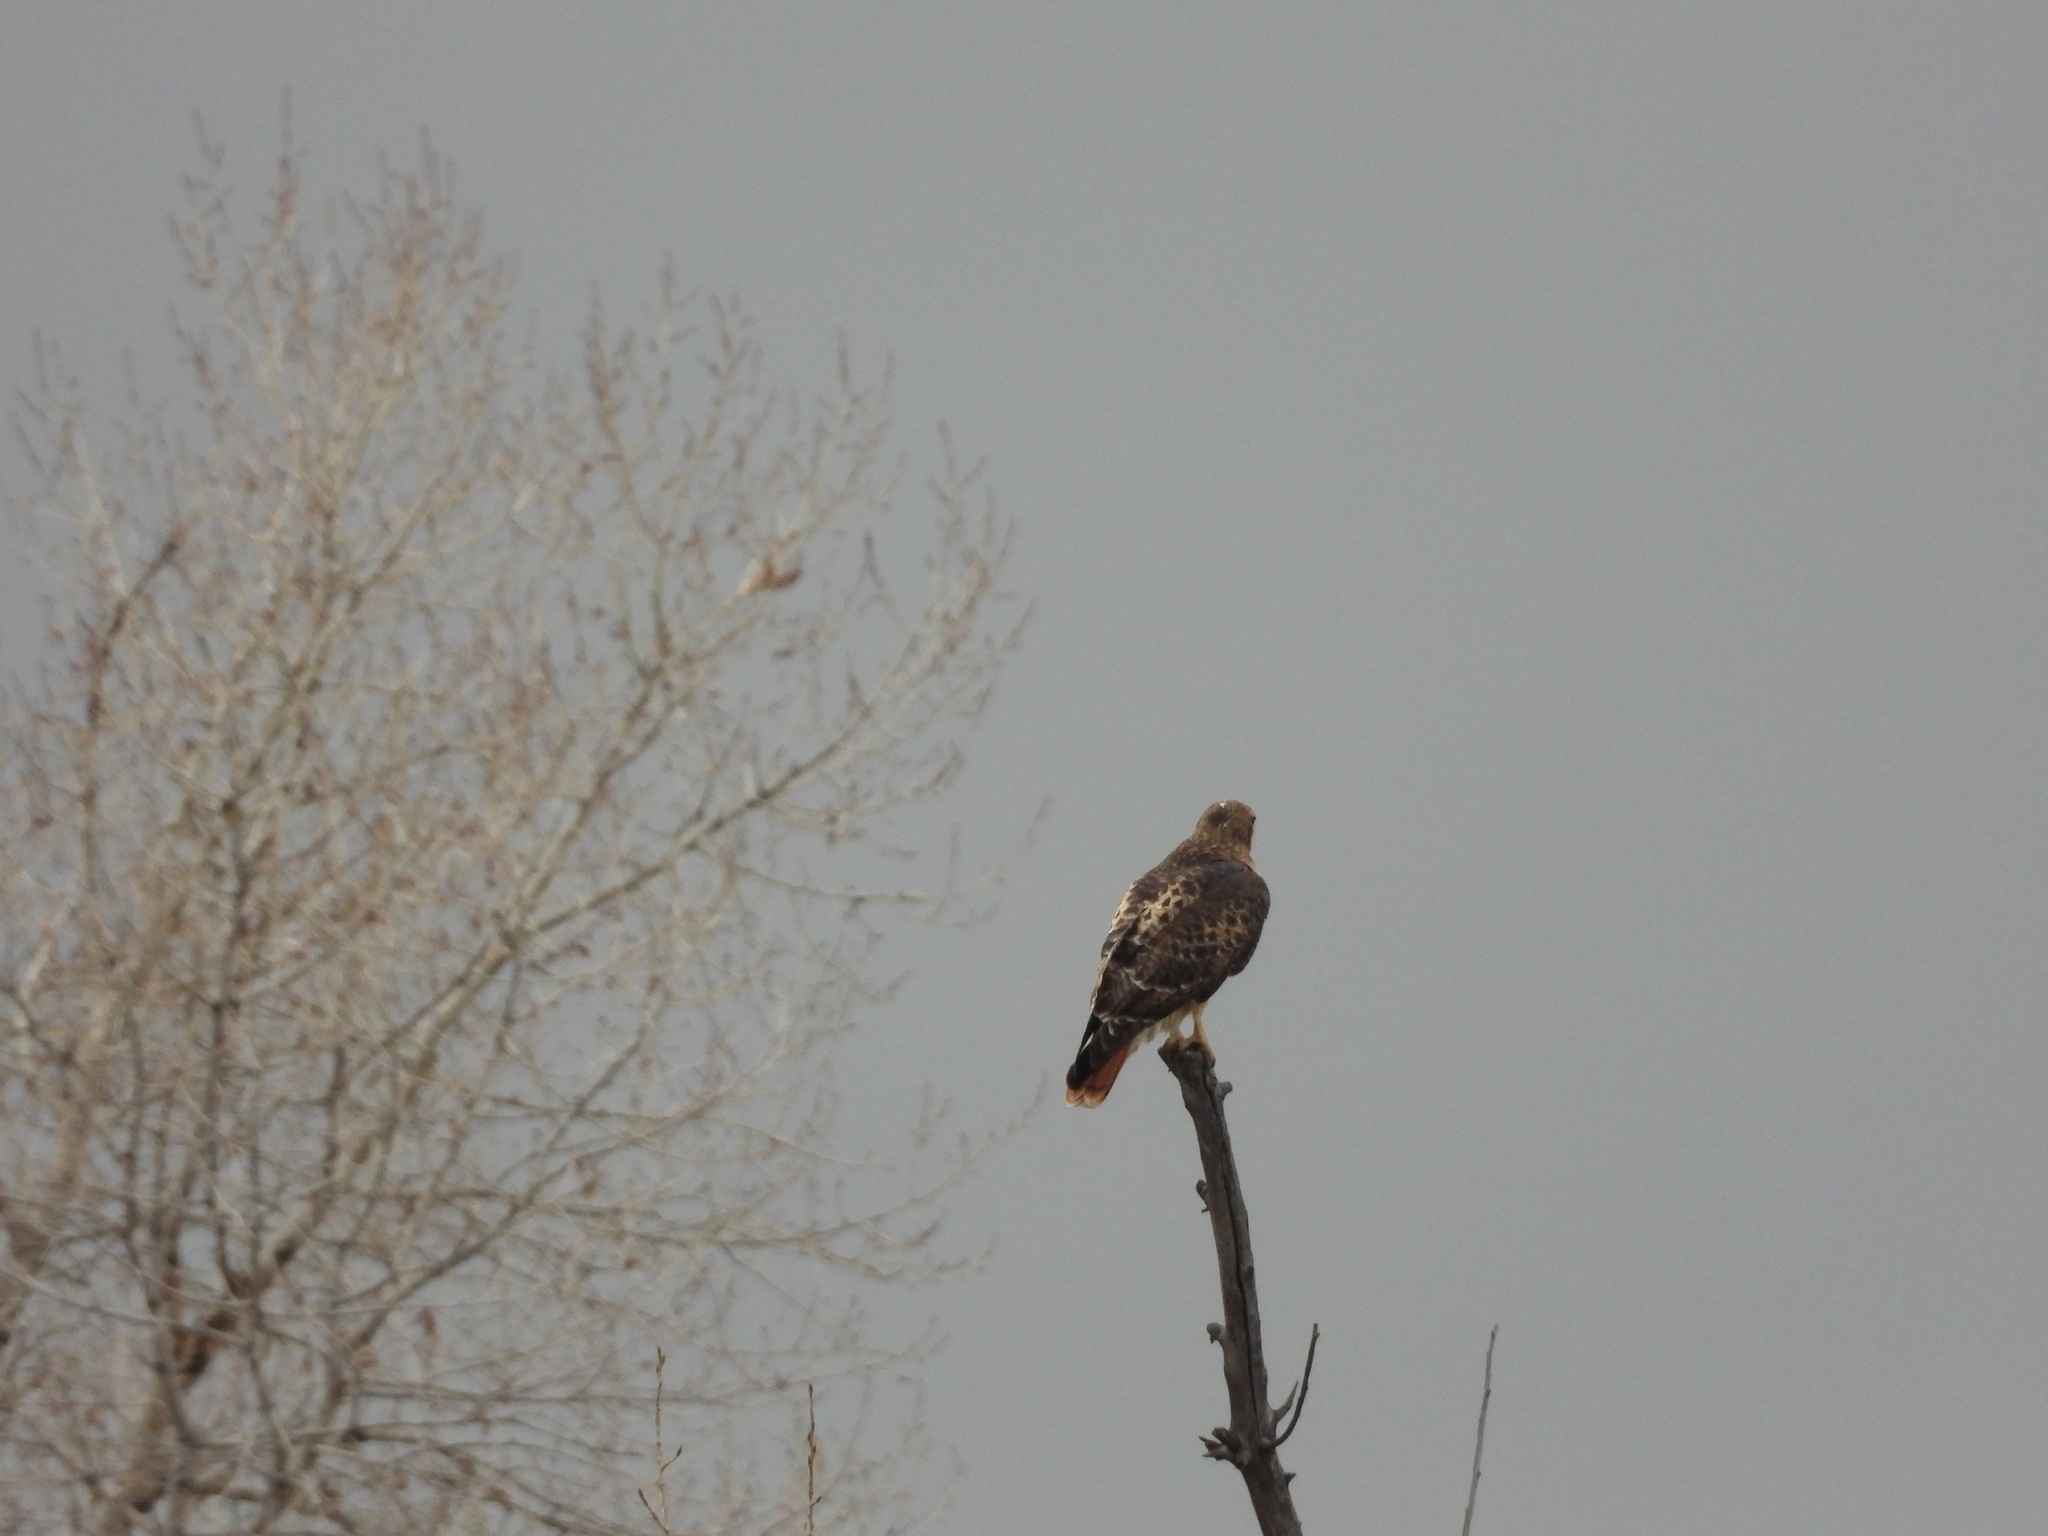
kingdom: Animalia
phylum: Chordata
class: Aves
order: Accipitriformes
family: Accipitridae
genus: Buteo
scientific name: Buteo jamaicensis
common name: Red-tailed hawk
